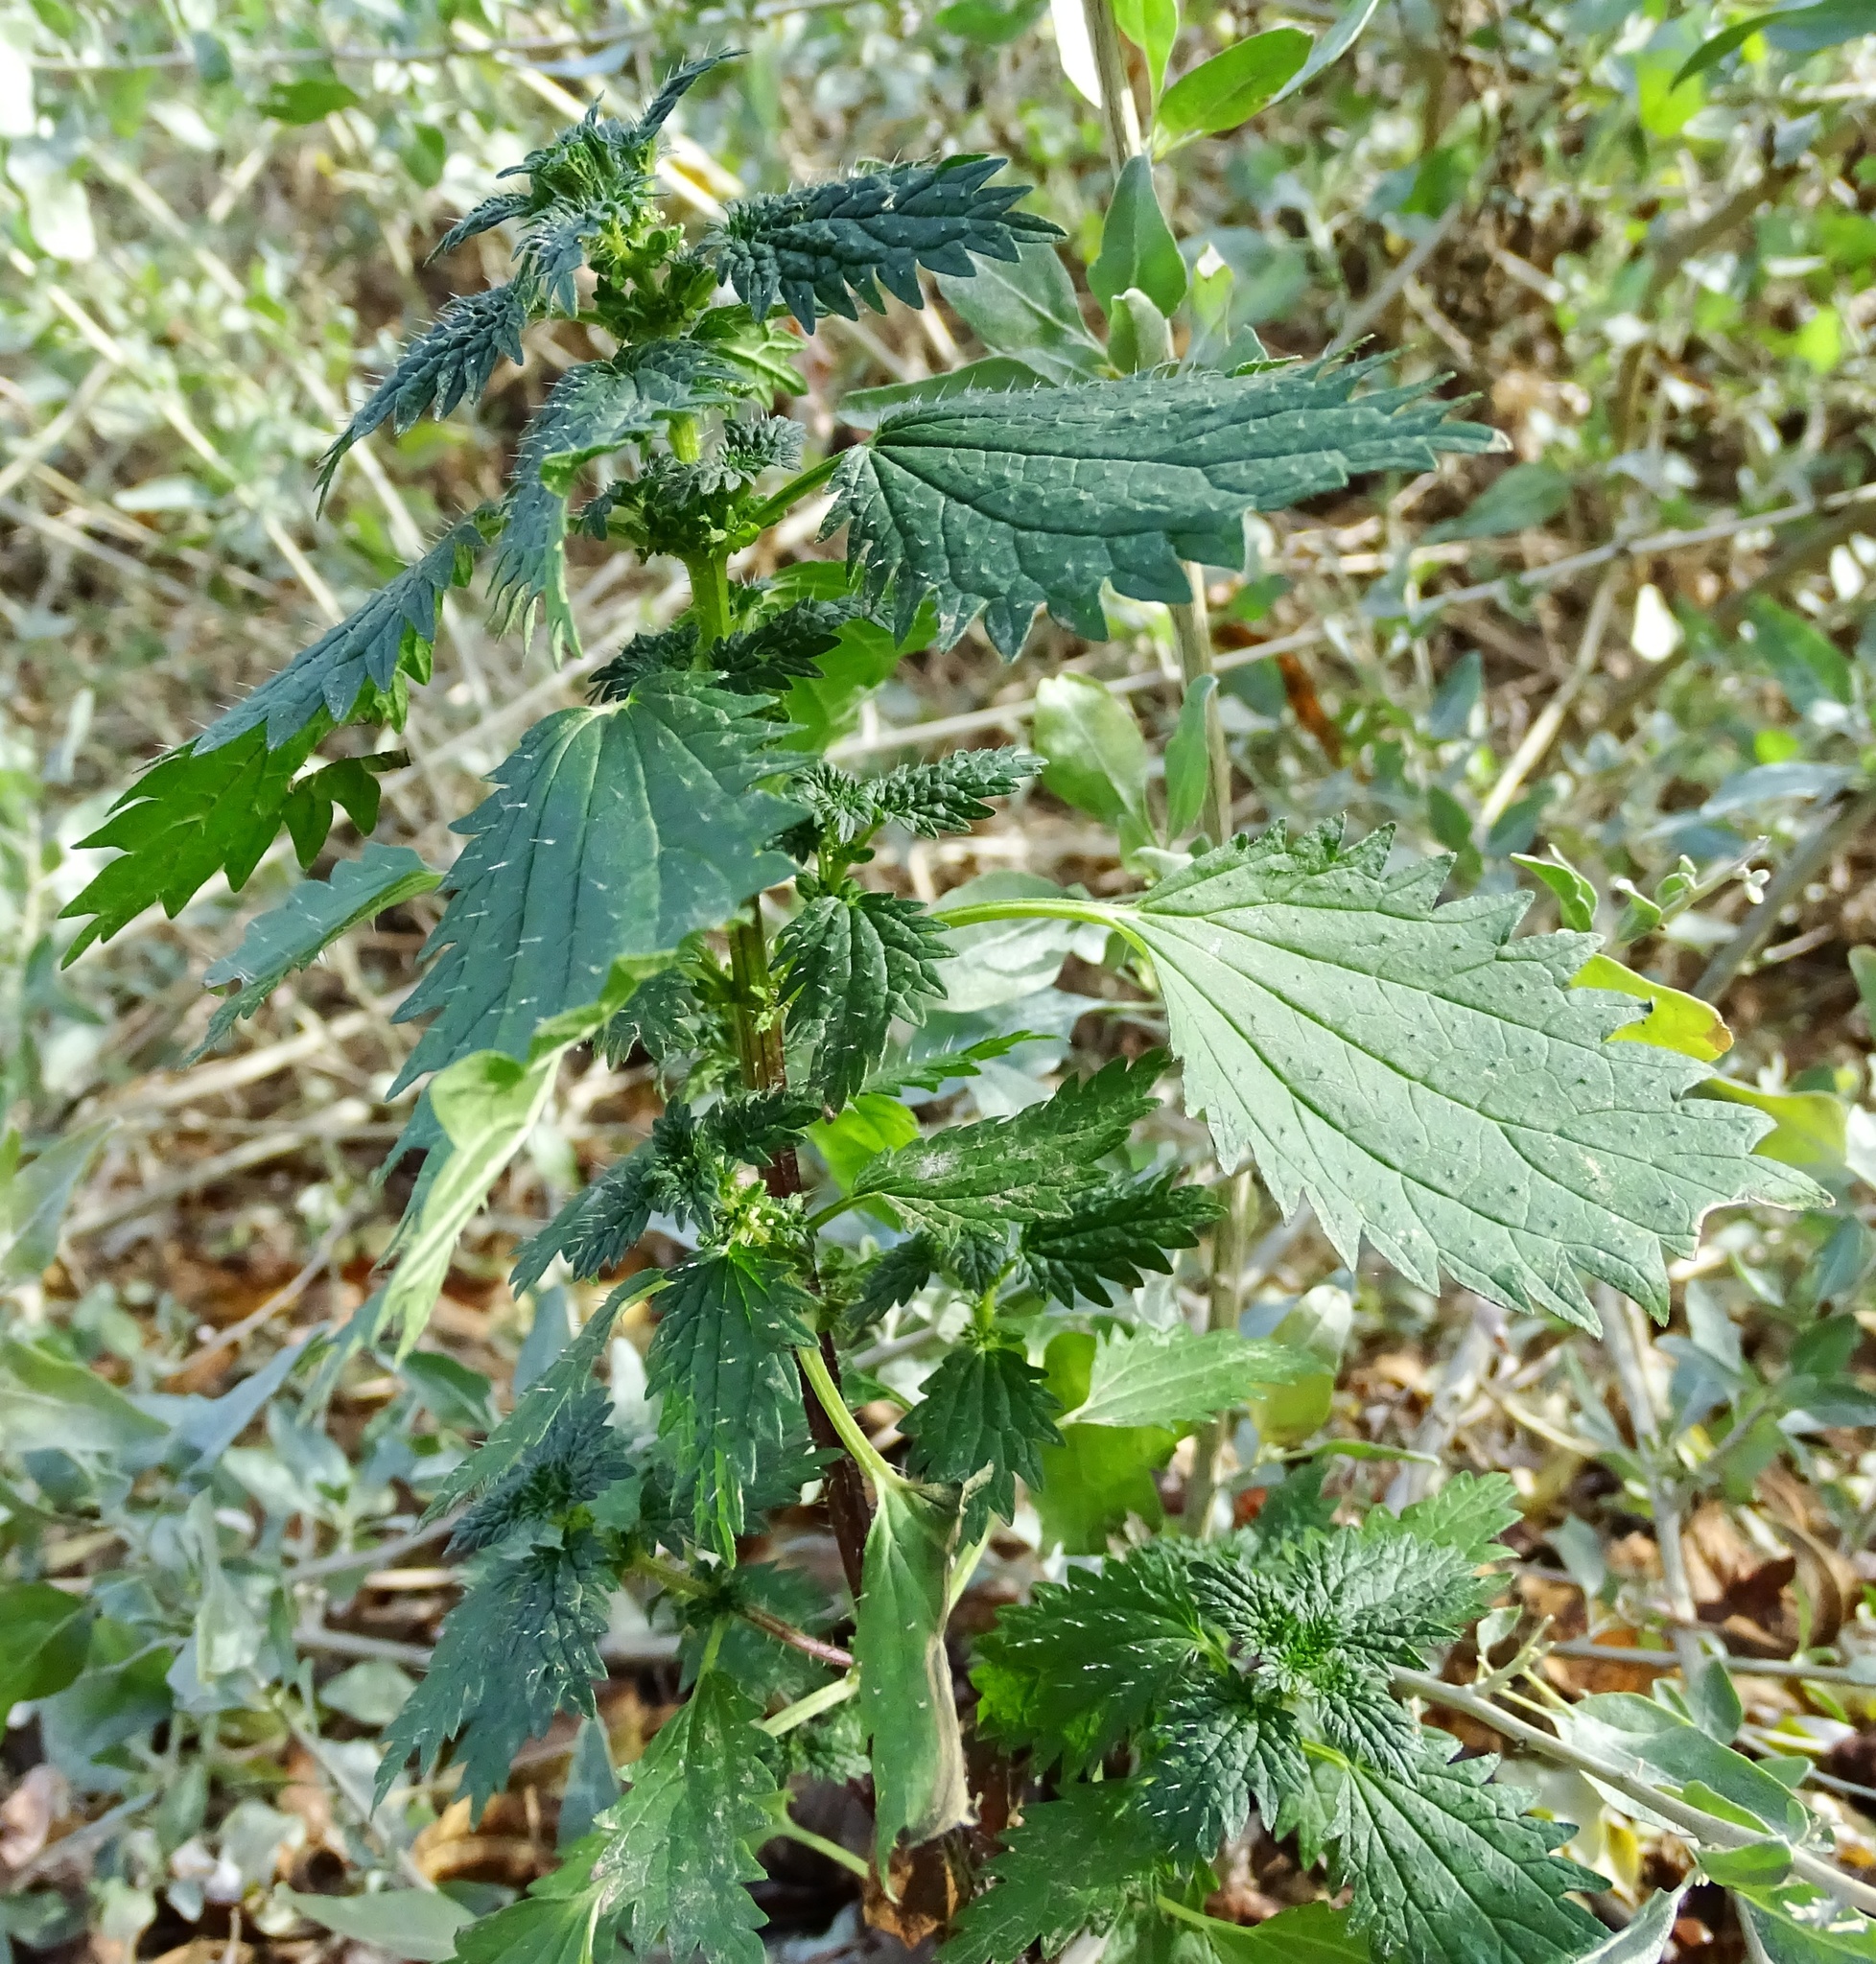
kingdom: Plantae
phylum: Tracheophyta
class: Magnoliopsida
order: Rosales
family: Urticaceae
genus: Urtica
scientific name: Urtica urens
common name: Dwarf nettle
